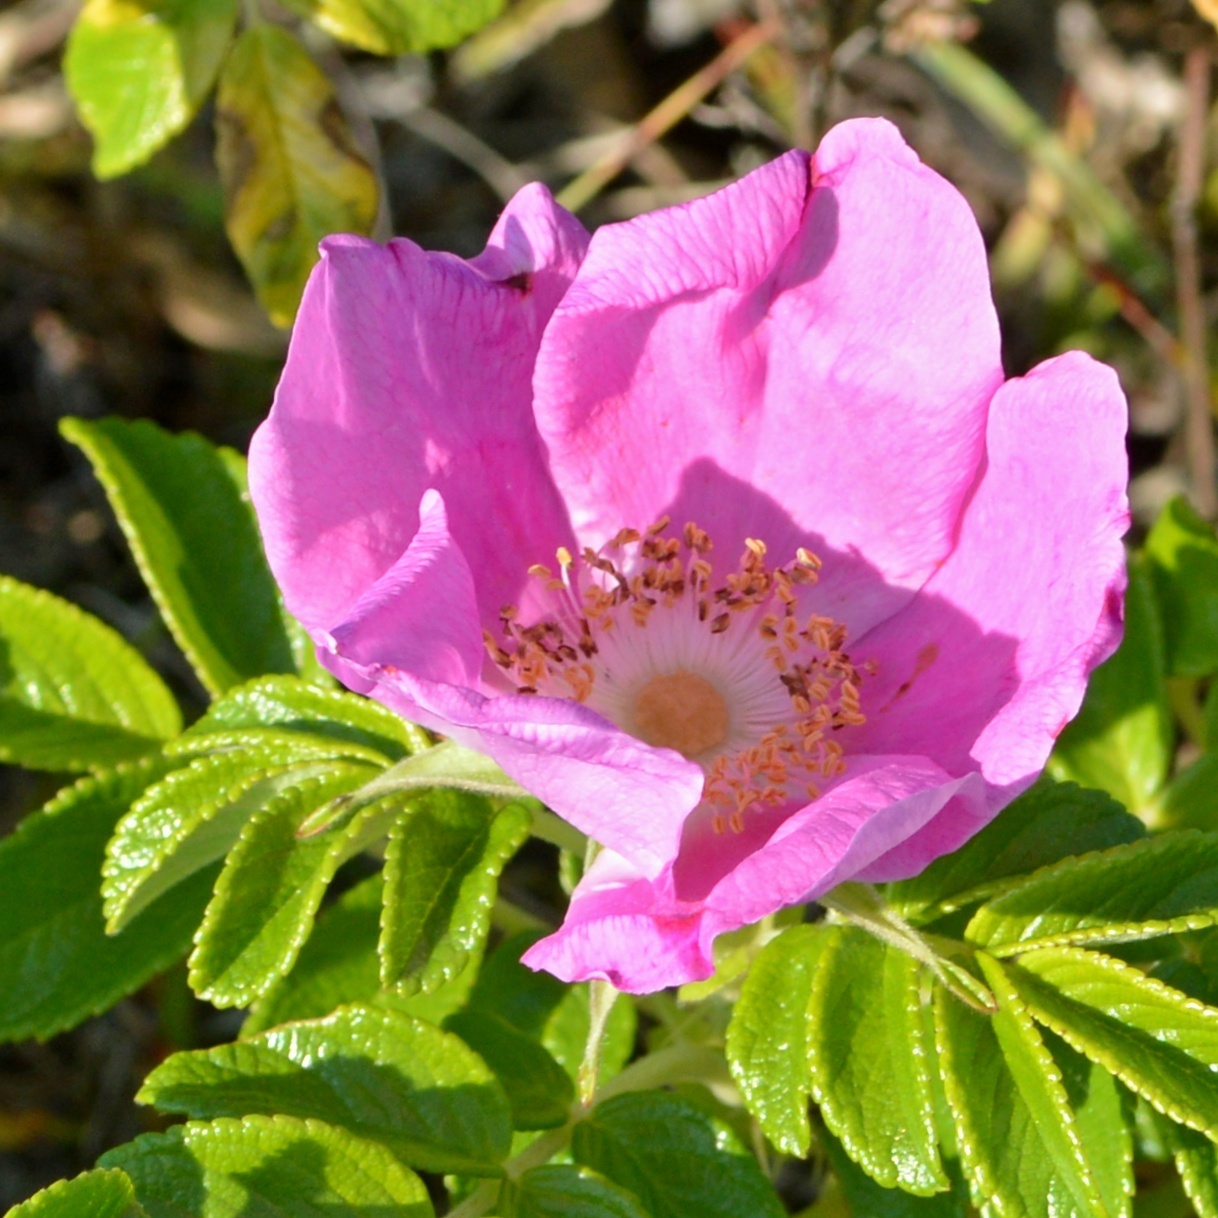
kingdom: Plantae
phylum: Tracheophyta
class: Magnoliopsida
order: Rosales
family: Rosaceae
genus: Rosa
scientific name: Rosa rugosa
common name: Japanese rose
